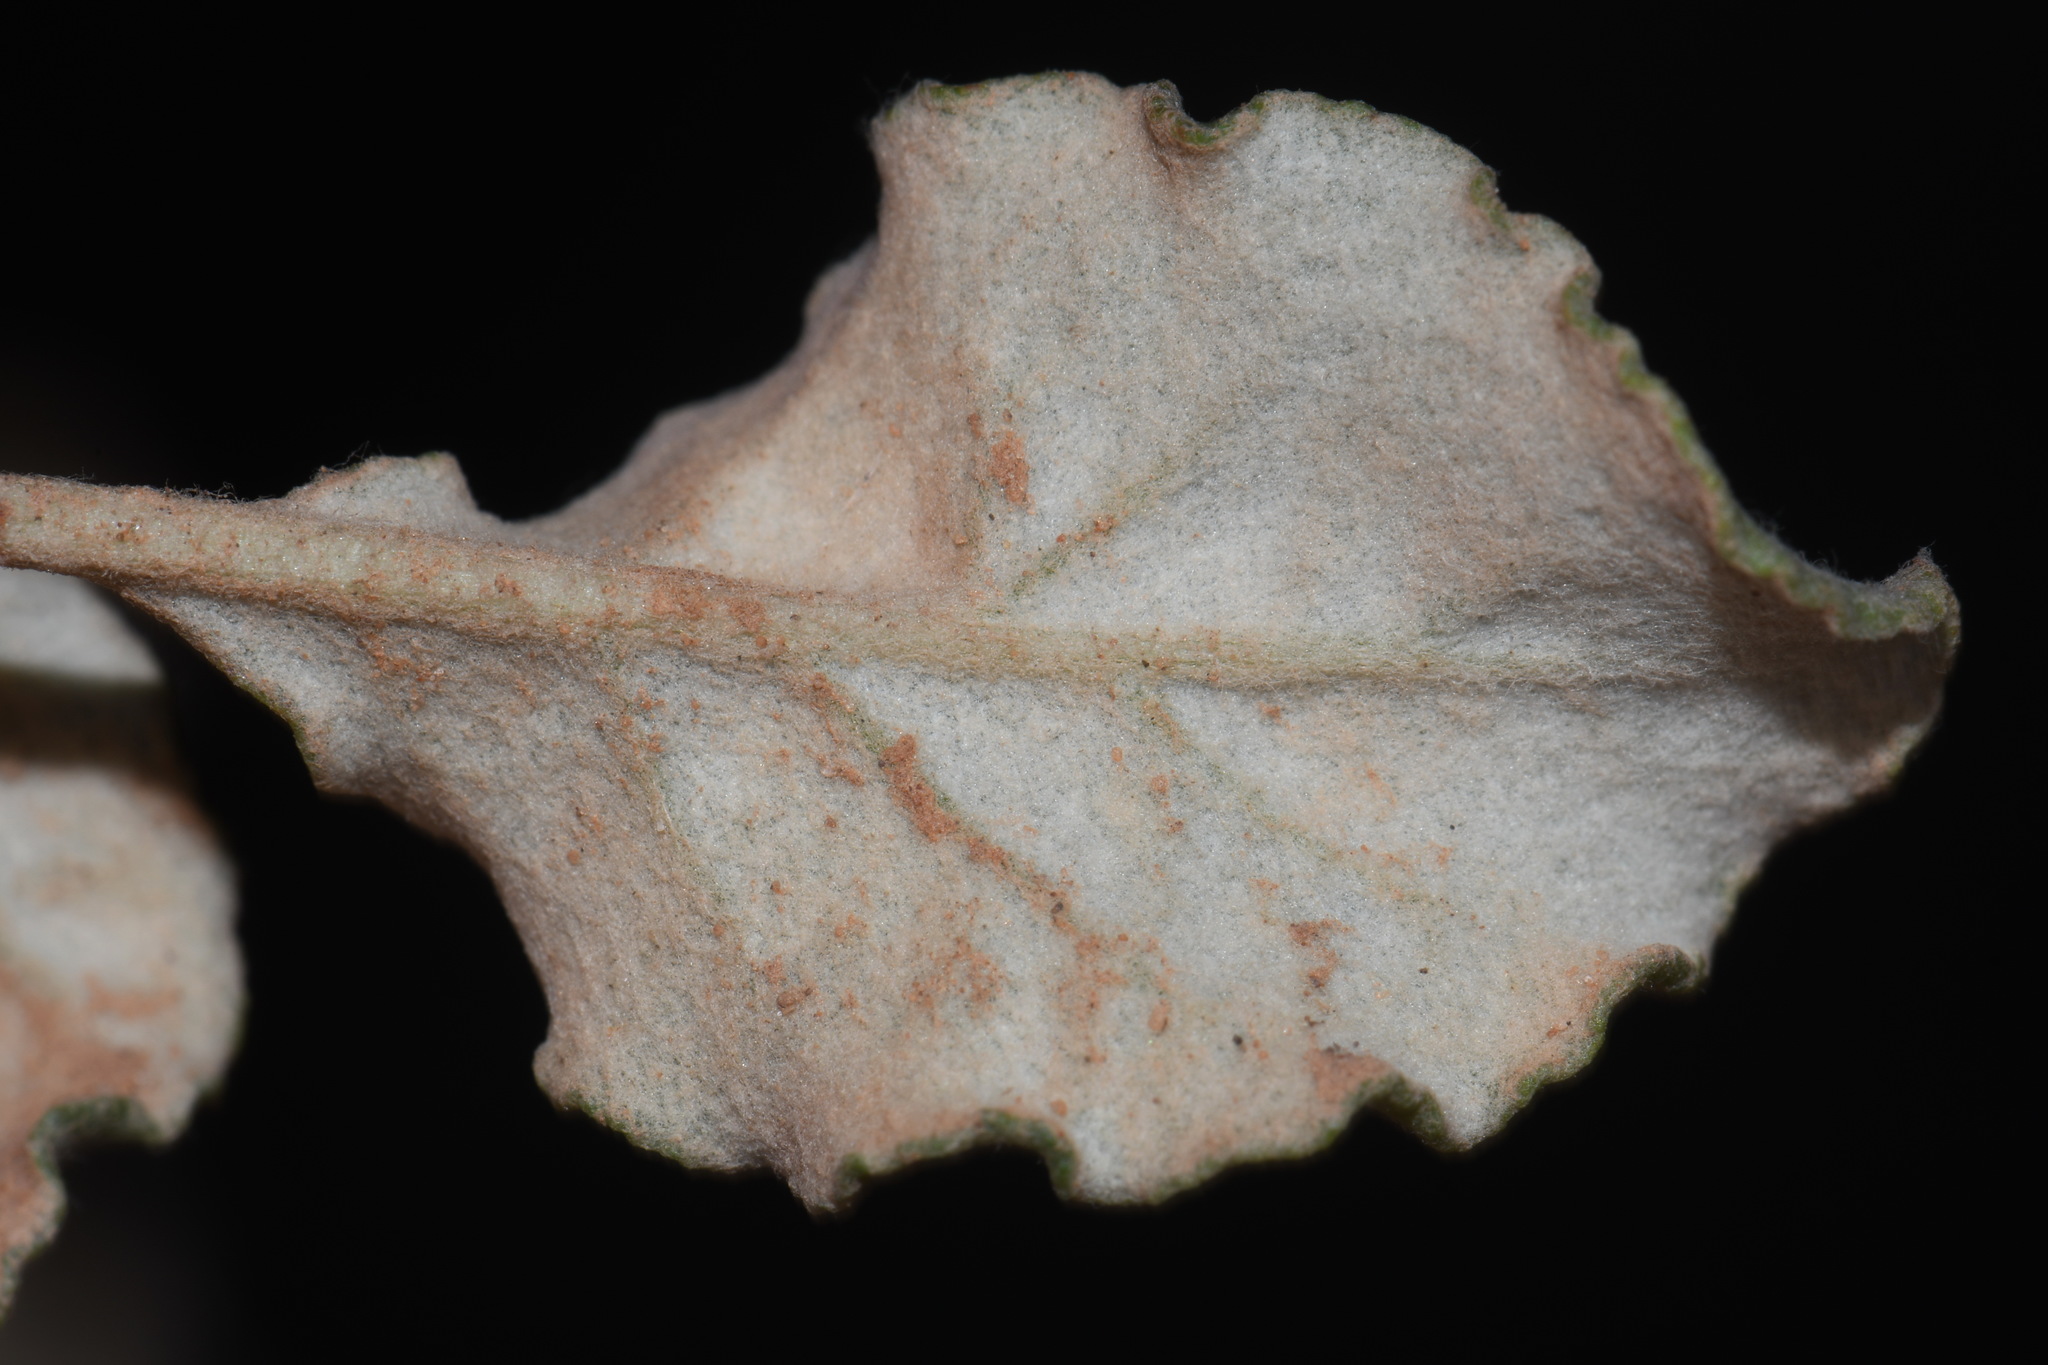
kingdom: Plantae
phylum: Tracheophyta
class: Magnoliopsida
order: Caryophyllales
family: Polygonaceae
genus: Eriogonum
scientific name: Eriogonum corymbosum
